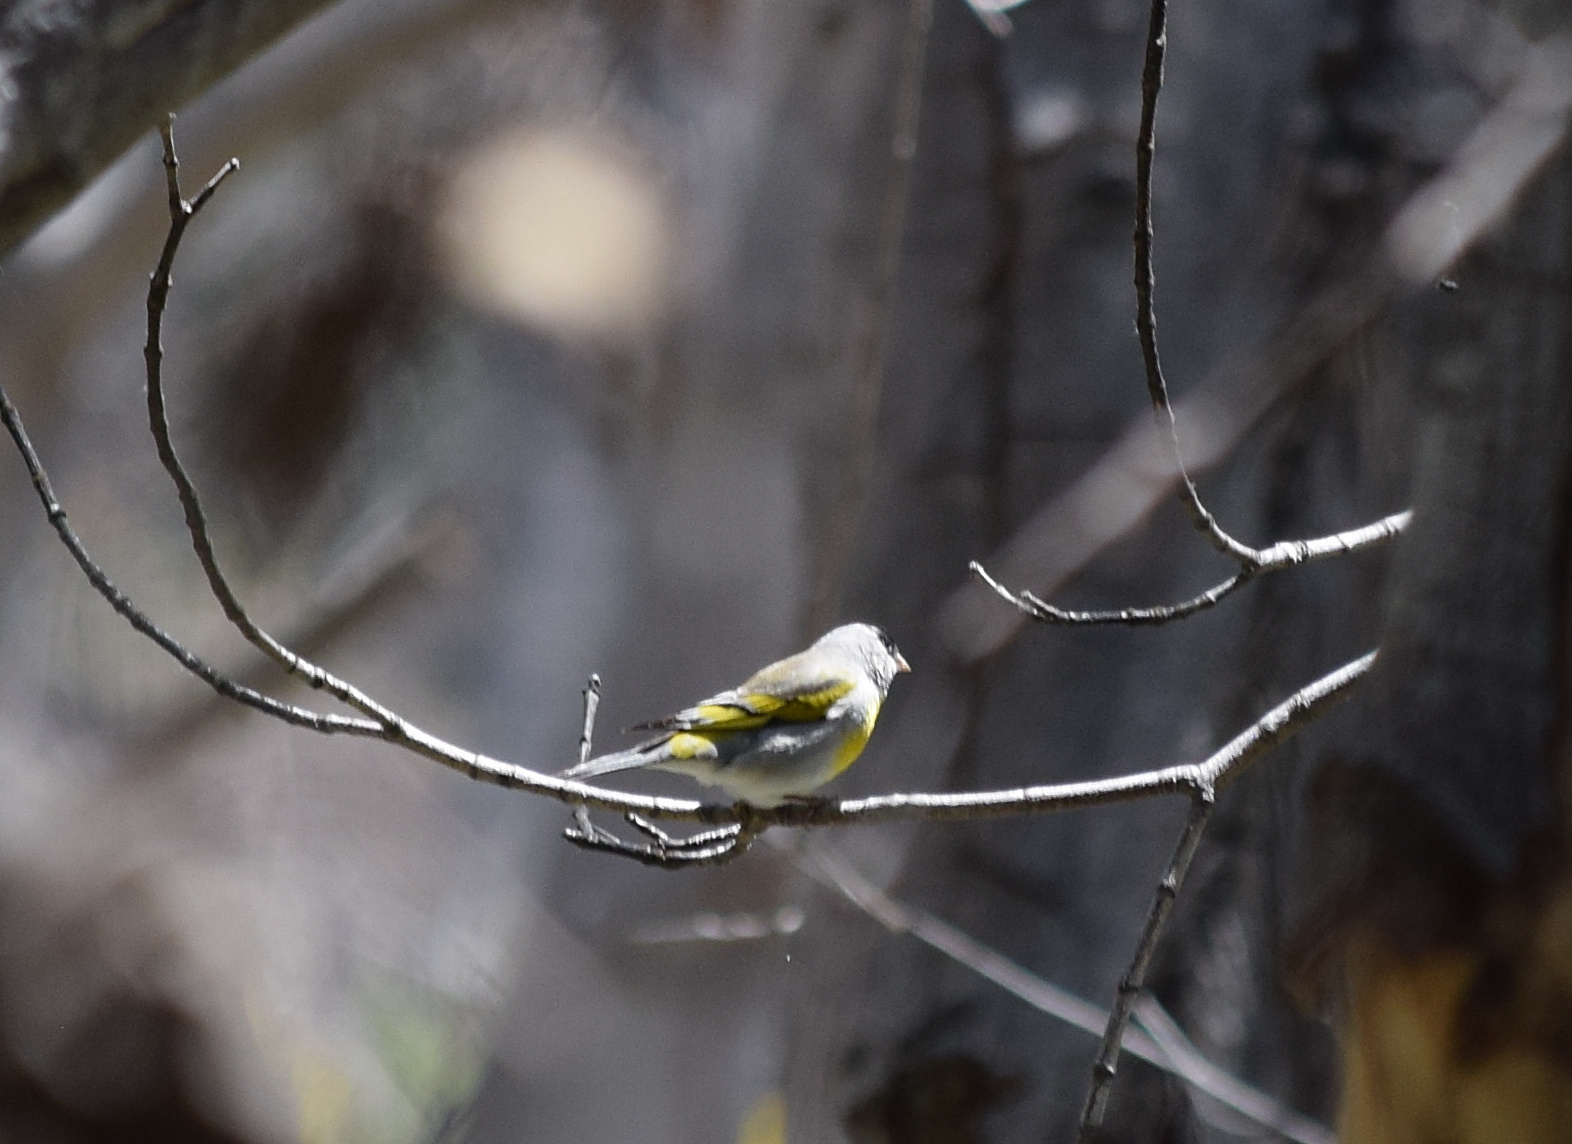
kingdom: Animalia
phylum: Chordata
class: Aves
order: Passeriformes
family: Fringillidae
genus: Spinus
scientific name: Spinus lawrencei
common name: Lawrence's goldfinch
